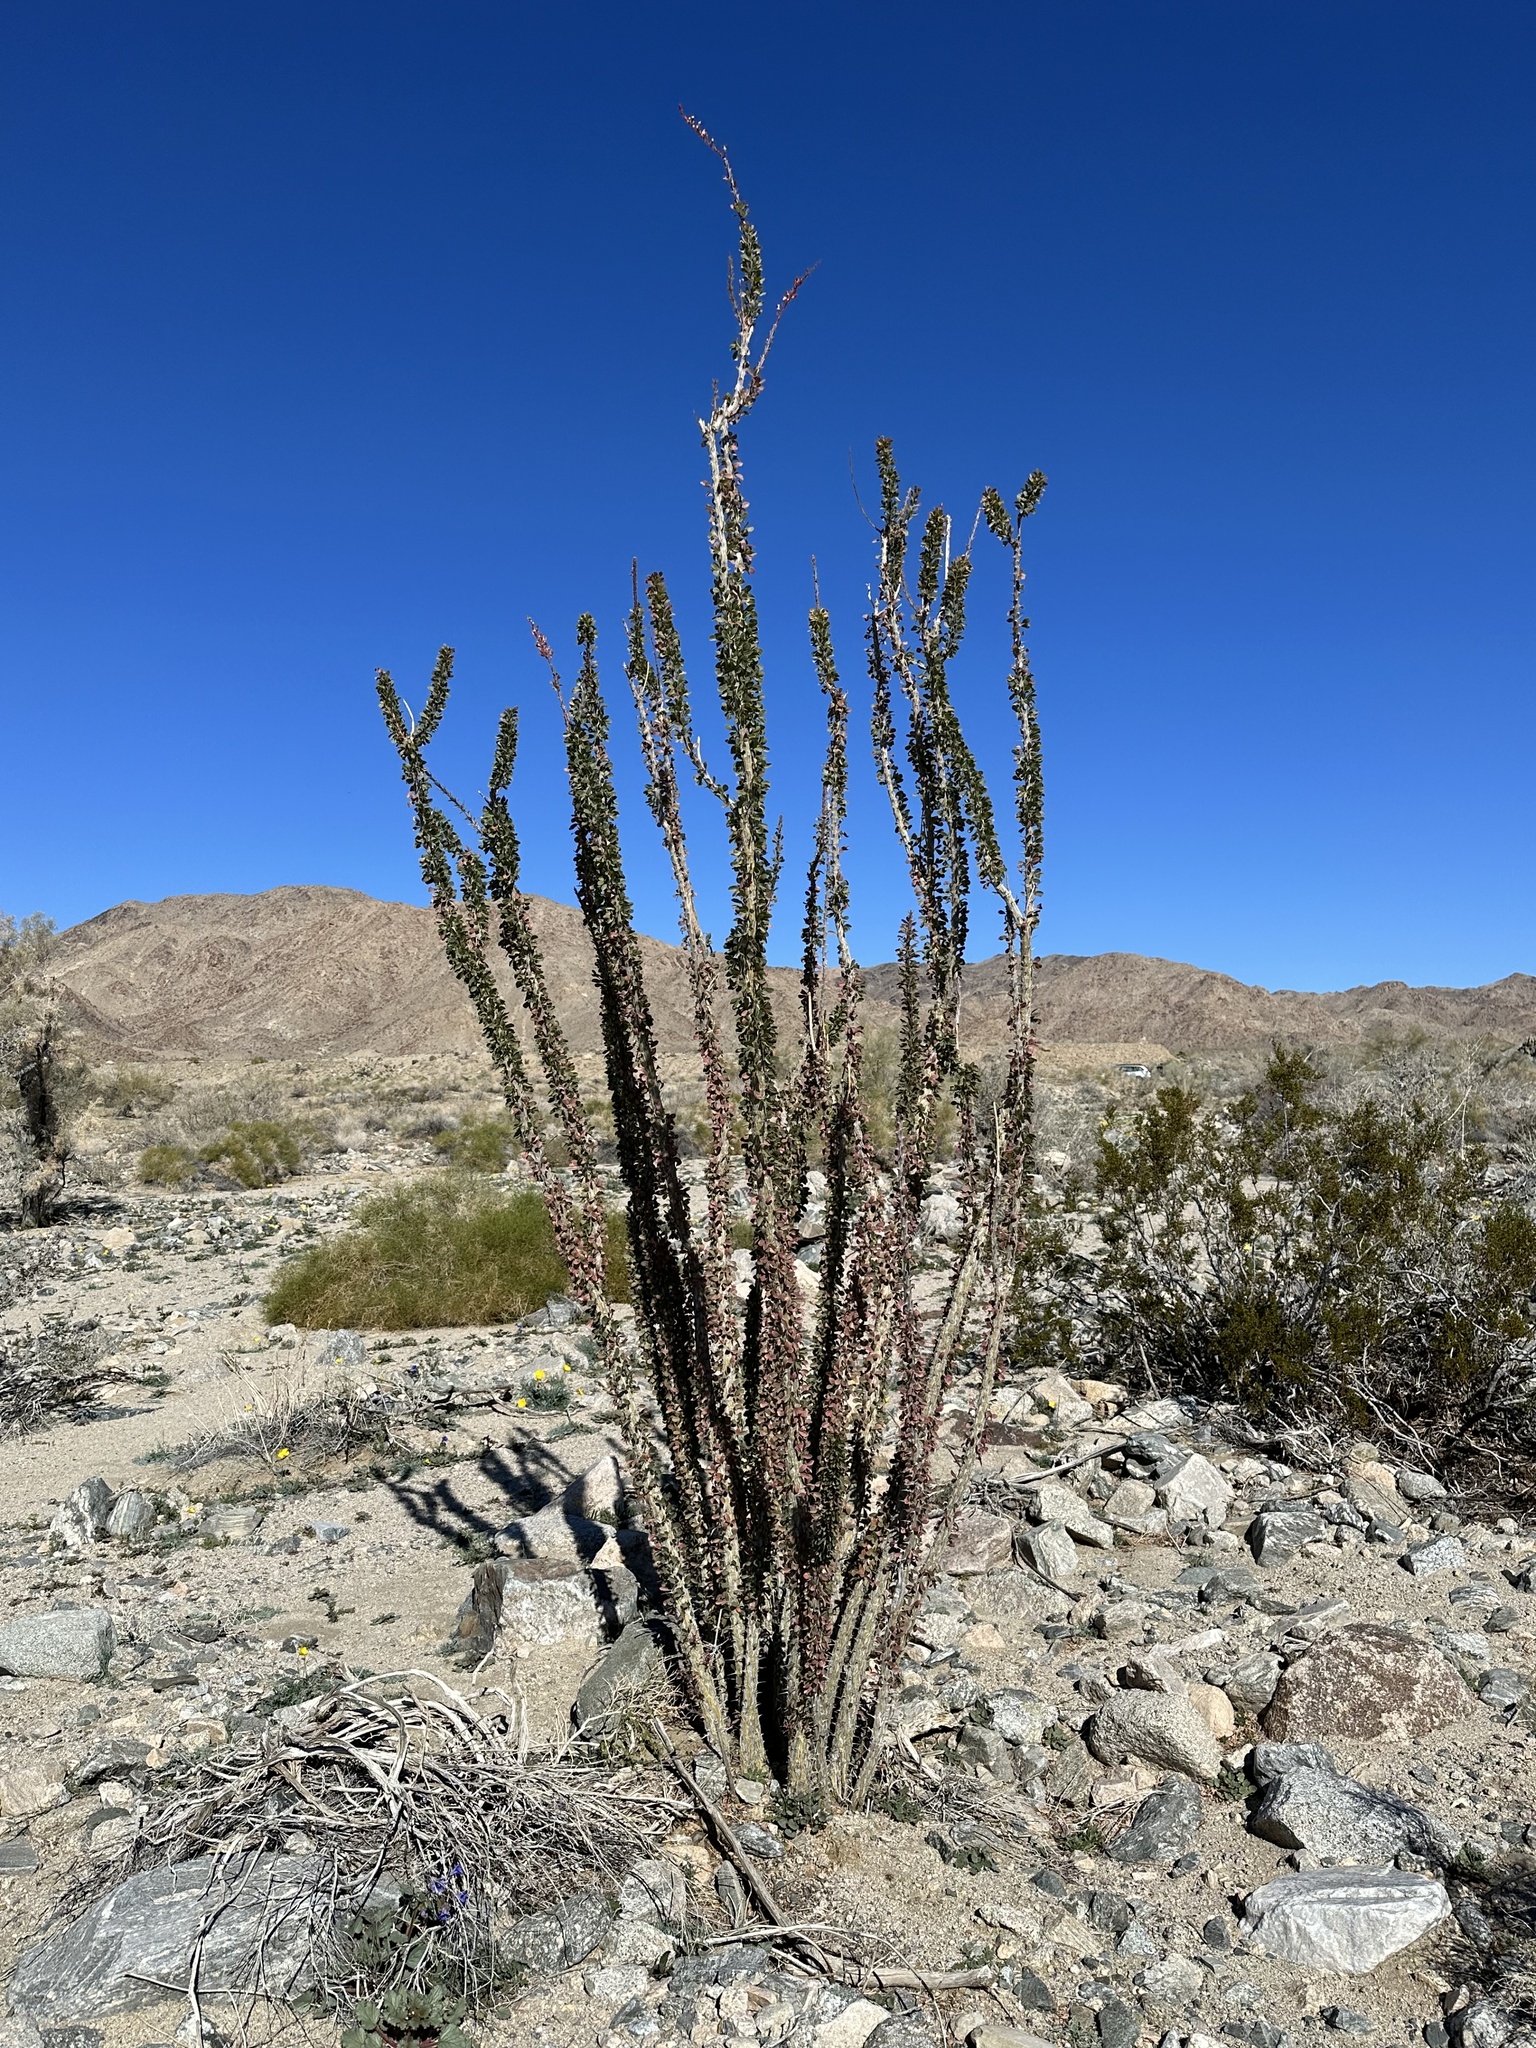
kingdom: Plantae
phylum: Tracheophyta
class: Magnoliopsida
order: Ericales
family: Fouquieriaceae
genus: Fouquieria
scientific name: Fouquieria splendens
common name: Vine-cactus
